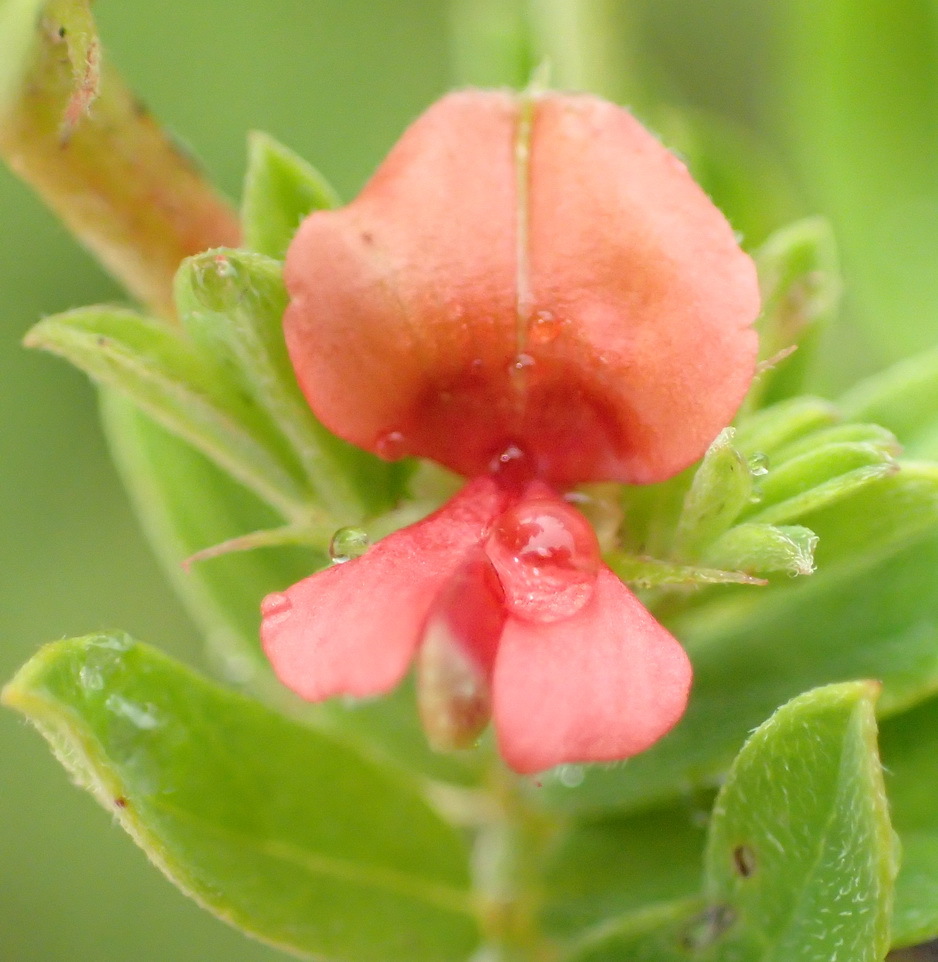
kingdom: Plantae
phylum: Tracheophyta
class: Magnoliopsida
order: Fabales
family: Fabaceae
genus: Indigofera
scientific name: Indigofera poliotes
